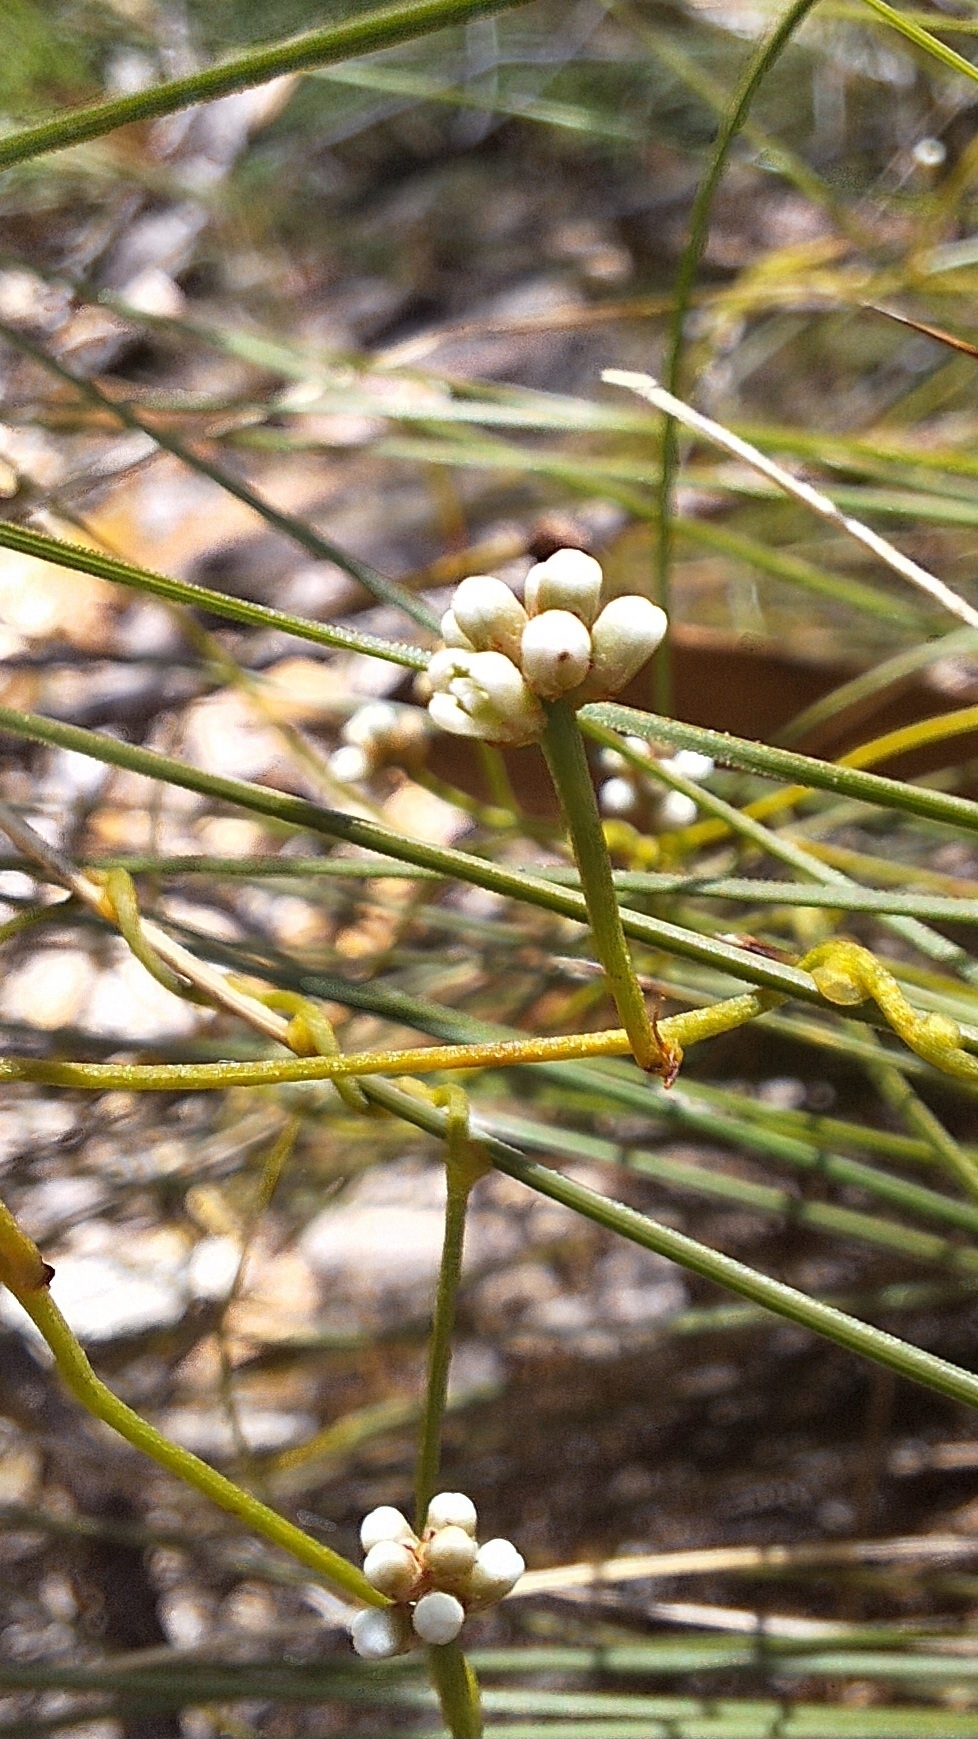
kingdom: Plantae
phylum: Tracheophyta
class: Magnoliopsida
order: Laurales
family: Lauraceae
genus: Cassytha
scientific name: Cassytha glabella
